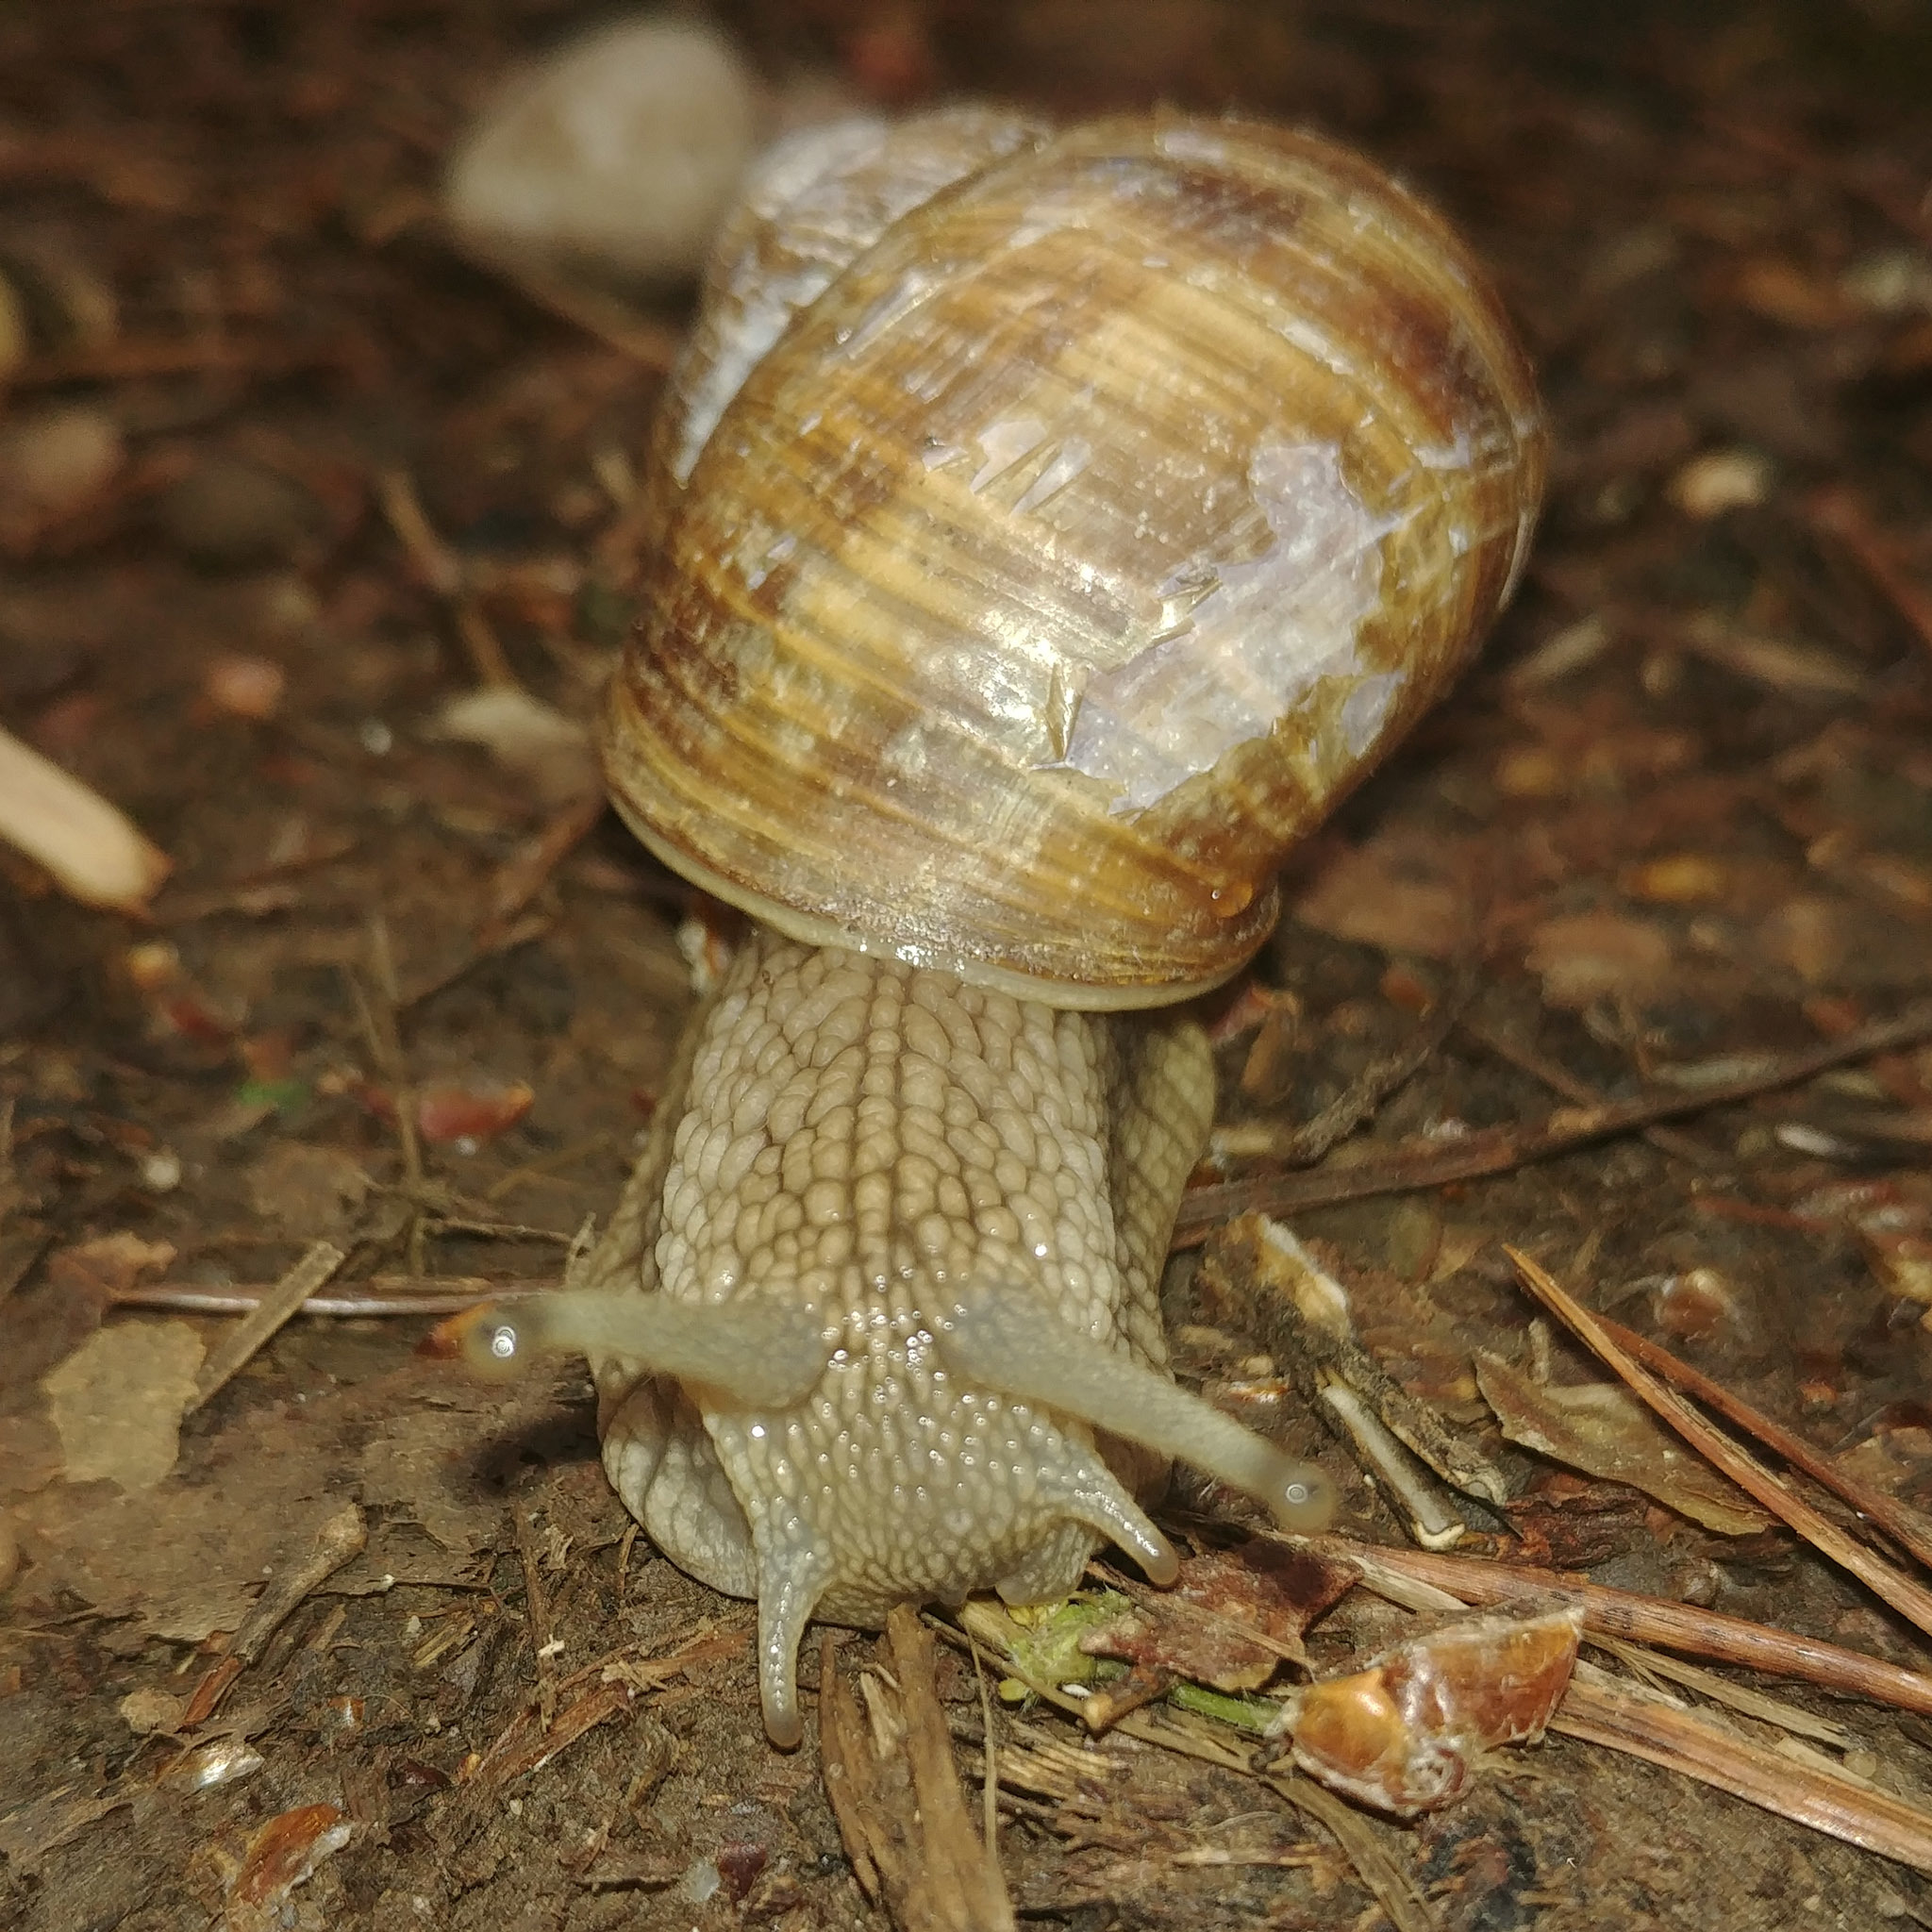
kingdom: Animalia
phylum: Mollusca
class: Gastropoda
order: Stylommatophora
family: Helicidae
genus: Helix
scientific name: Helix pomatia
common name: Roman snail
